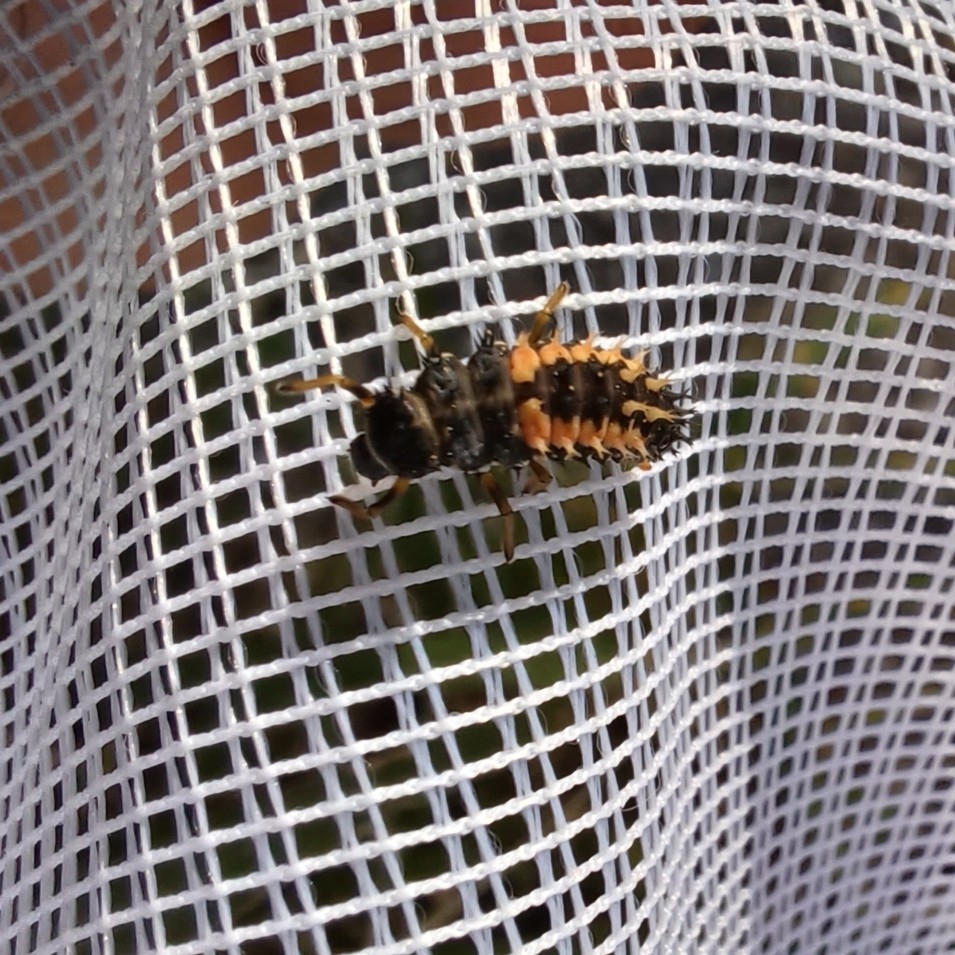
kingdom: Animalia
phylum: Arthropoda
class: Insecta
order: Coleoptera
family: Coccinellidae
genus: Harmonia
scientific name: Harmonia axyridis
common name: Harlequin ladybird
